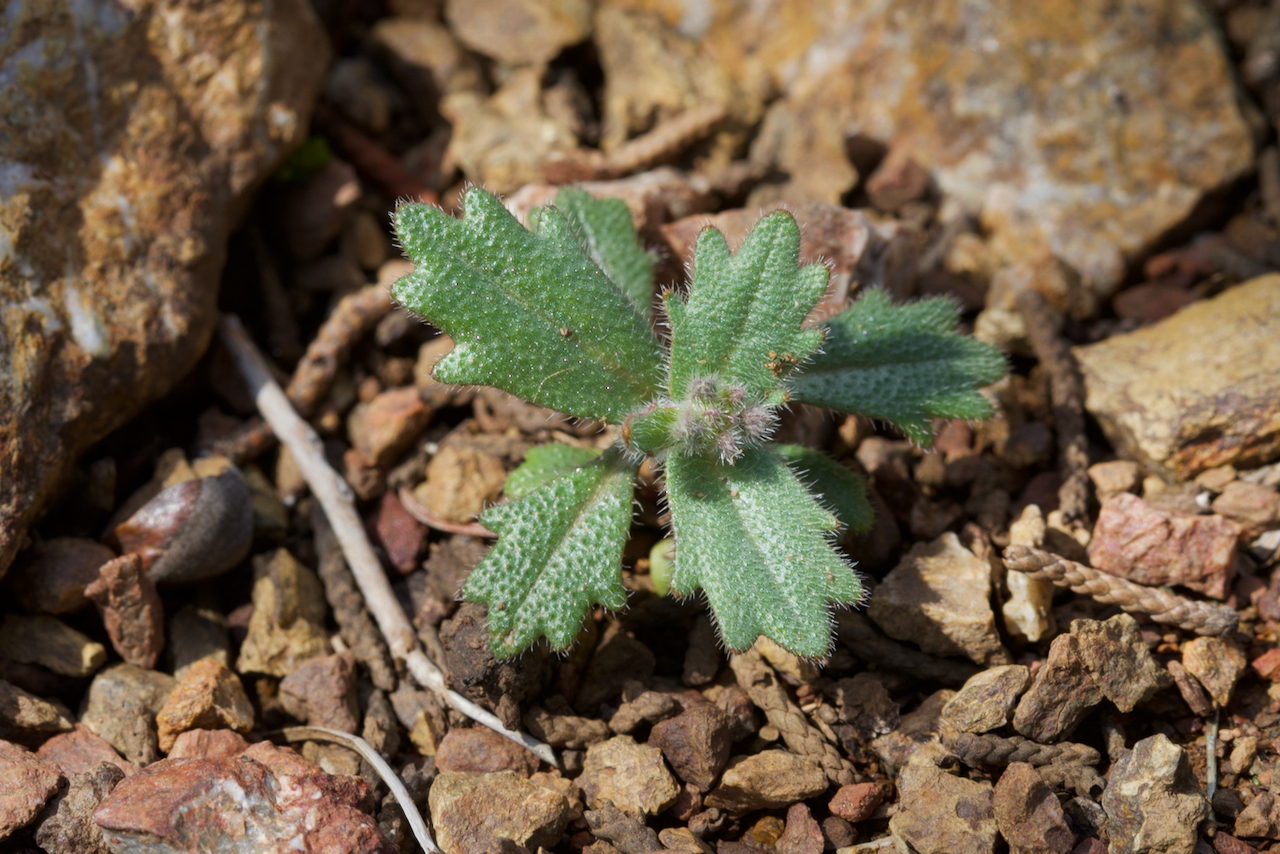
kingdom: Plantae
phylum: Tracheophyta
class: Magnoliopsida
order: Brassicales
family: Brassicaceae
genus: Streptanthus
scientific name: Streptanthus hispidus
